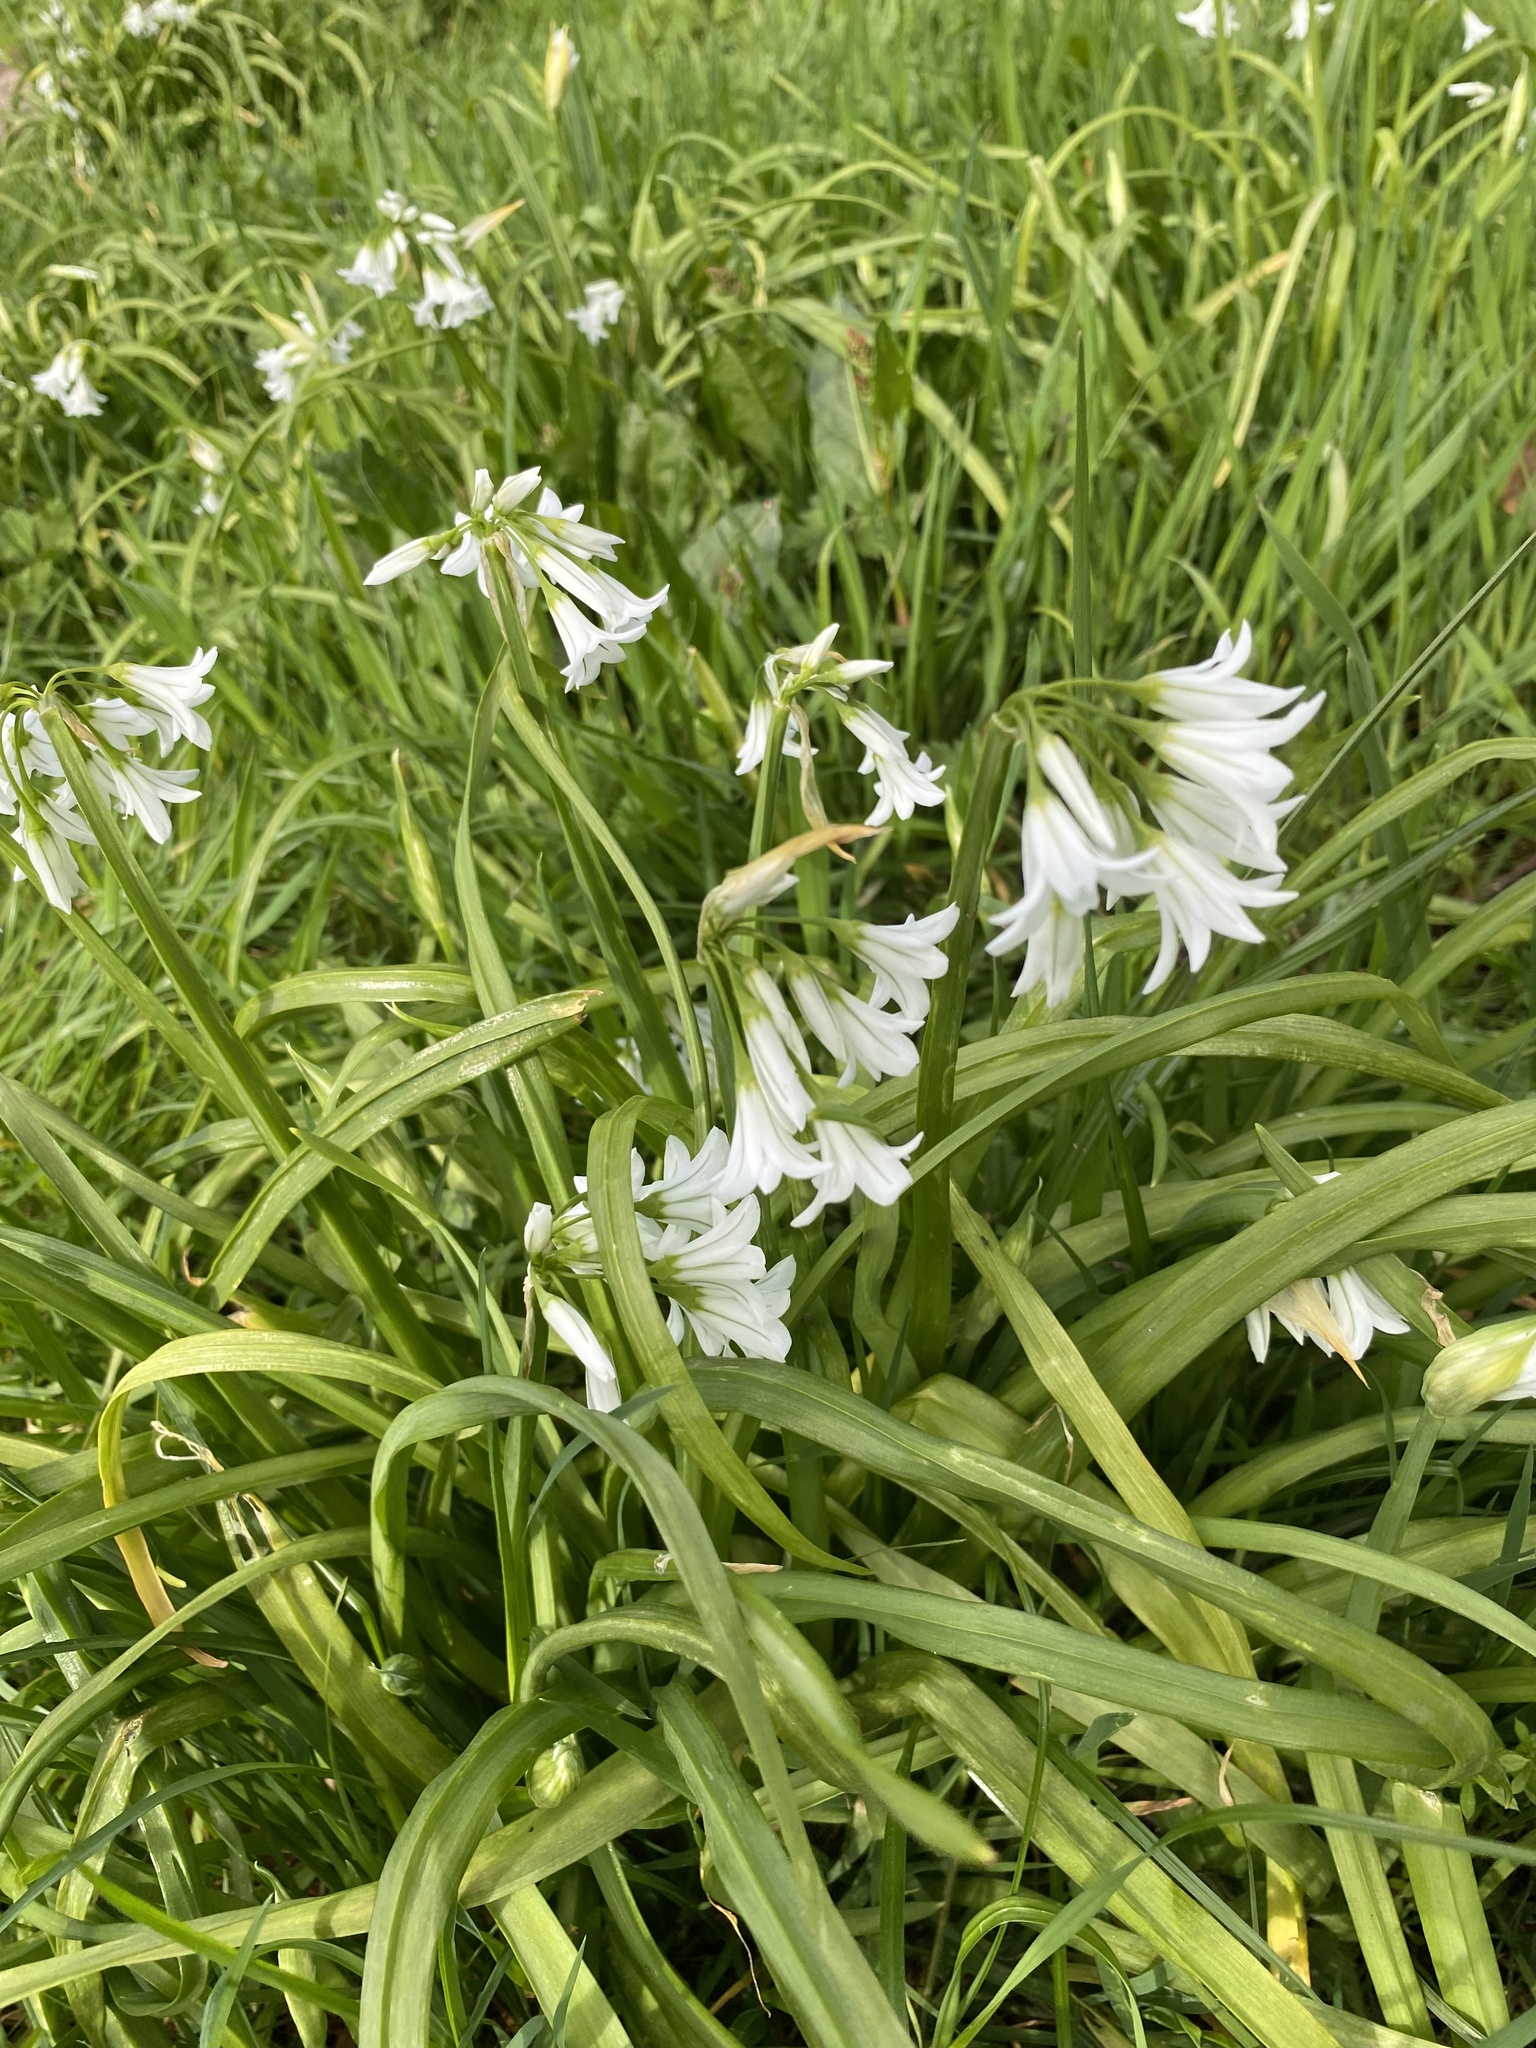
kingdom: Plantae
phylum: Tracheophyta
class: Liliopsida
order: Asparagales
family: Amaryllidaceae
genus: Allium
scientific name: Allium triquetrum
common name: Three-cornered garlic
